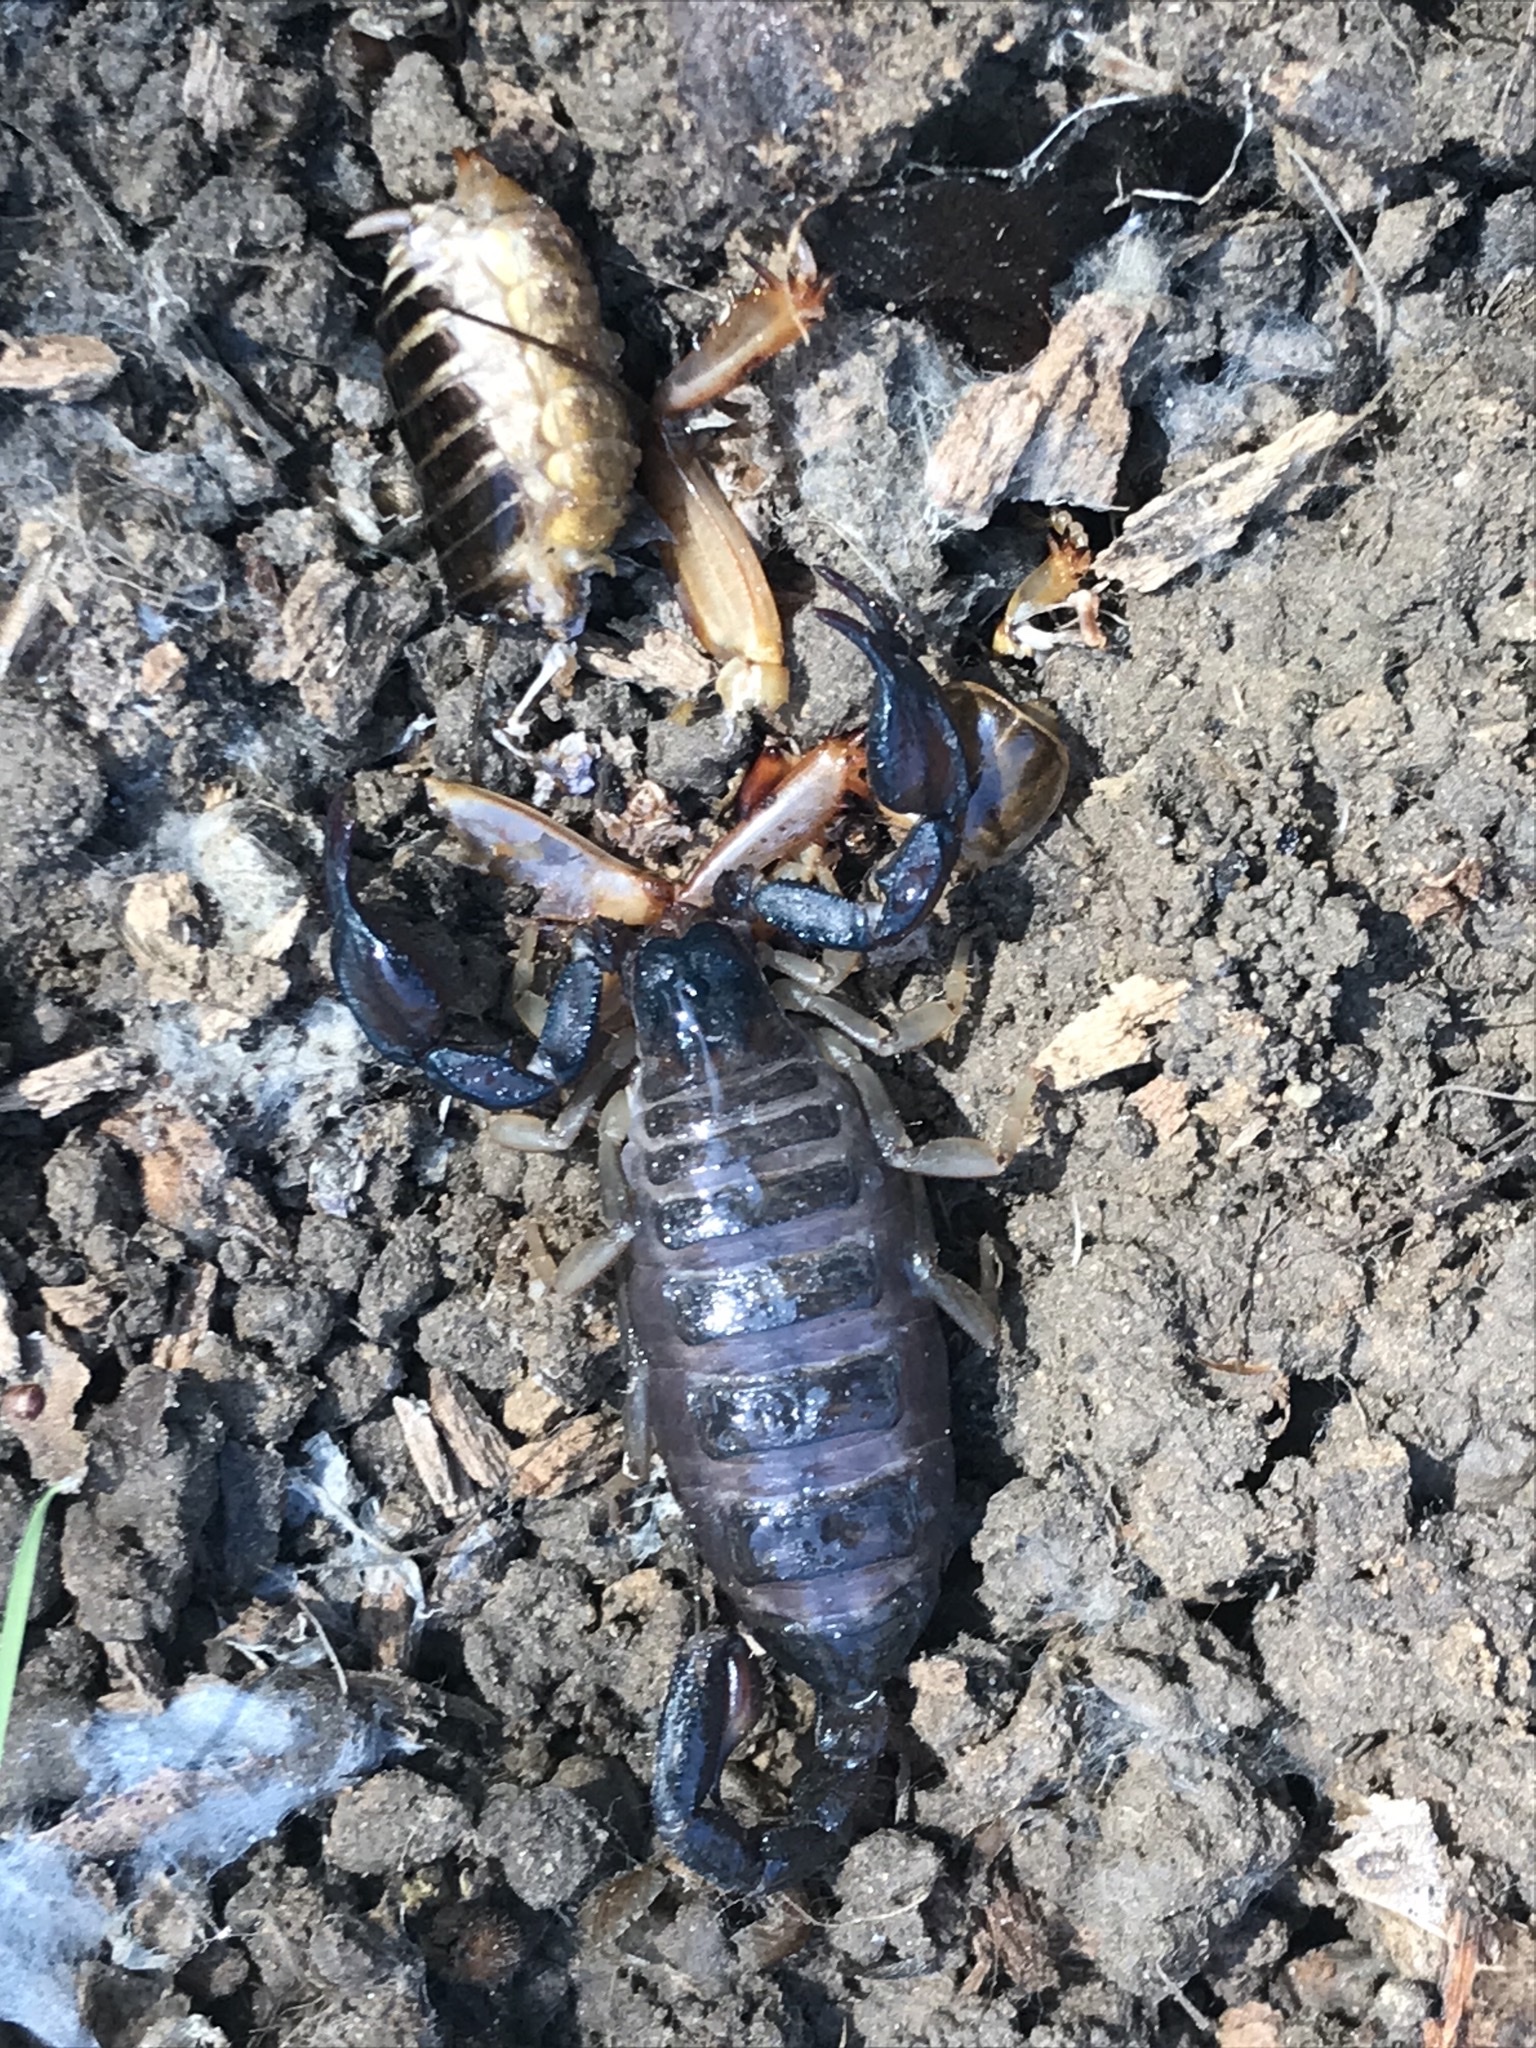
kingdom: Animalia
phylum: Arthropoda
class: Arachnida
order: Scorpiones
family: Chactidae
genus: Uroctonus
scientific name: Uroctonus mordax
